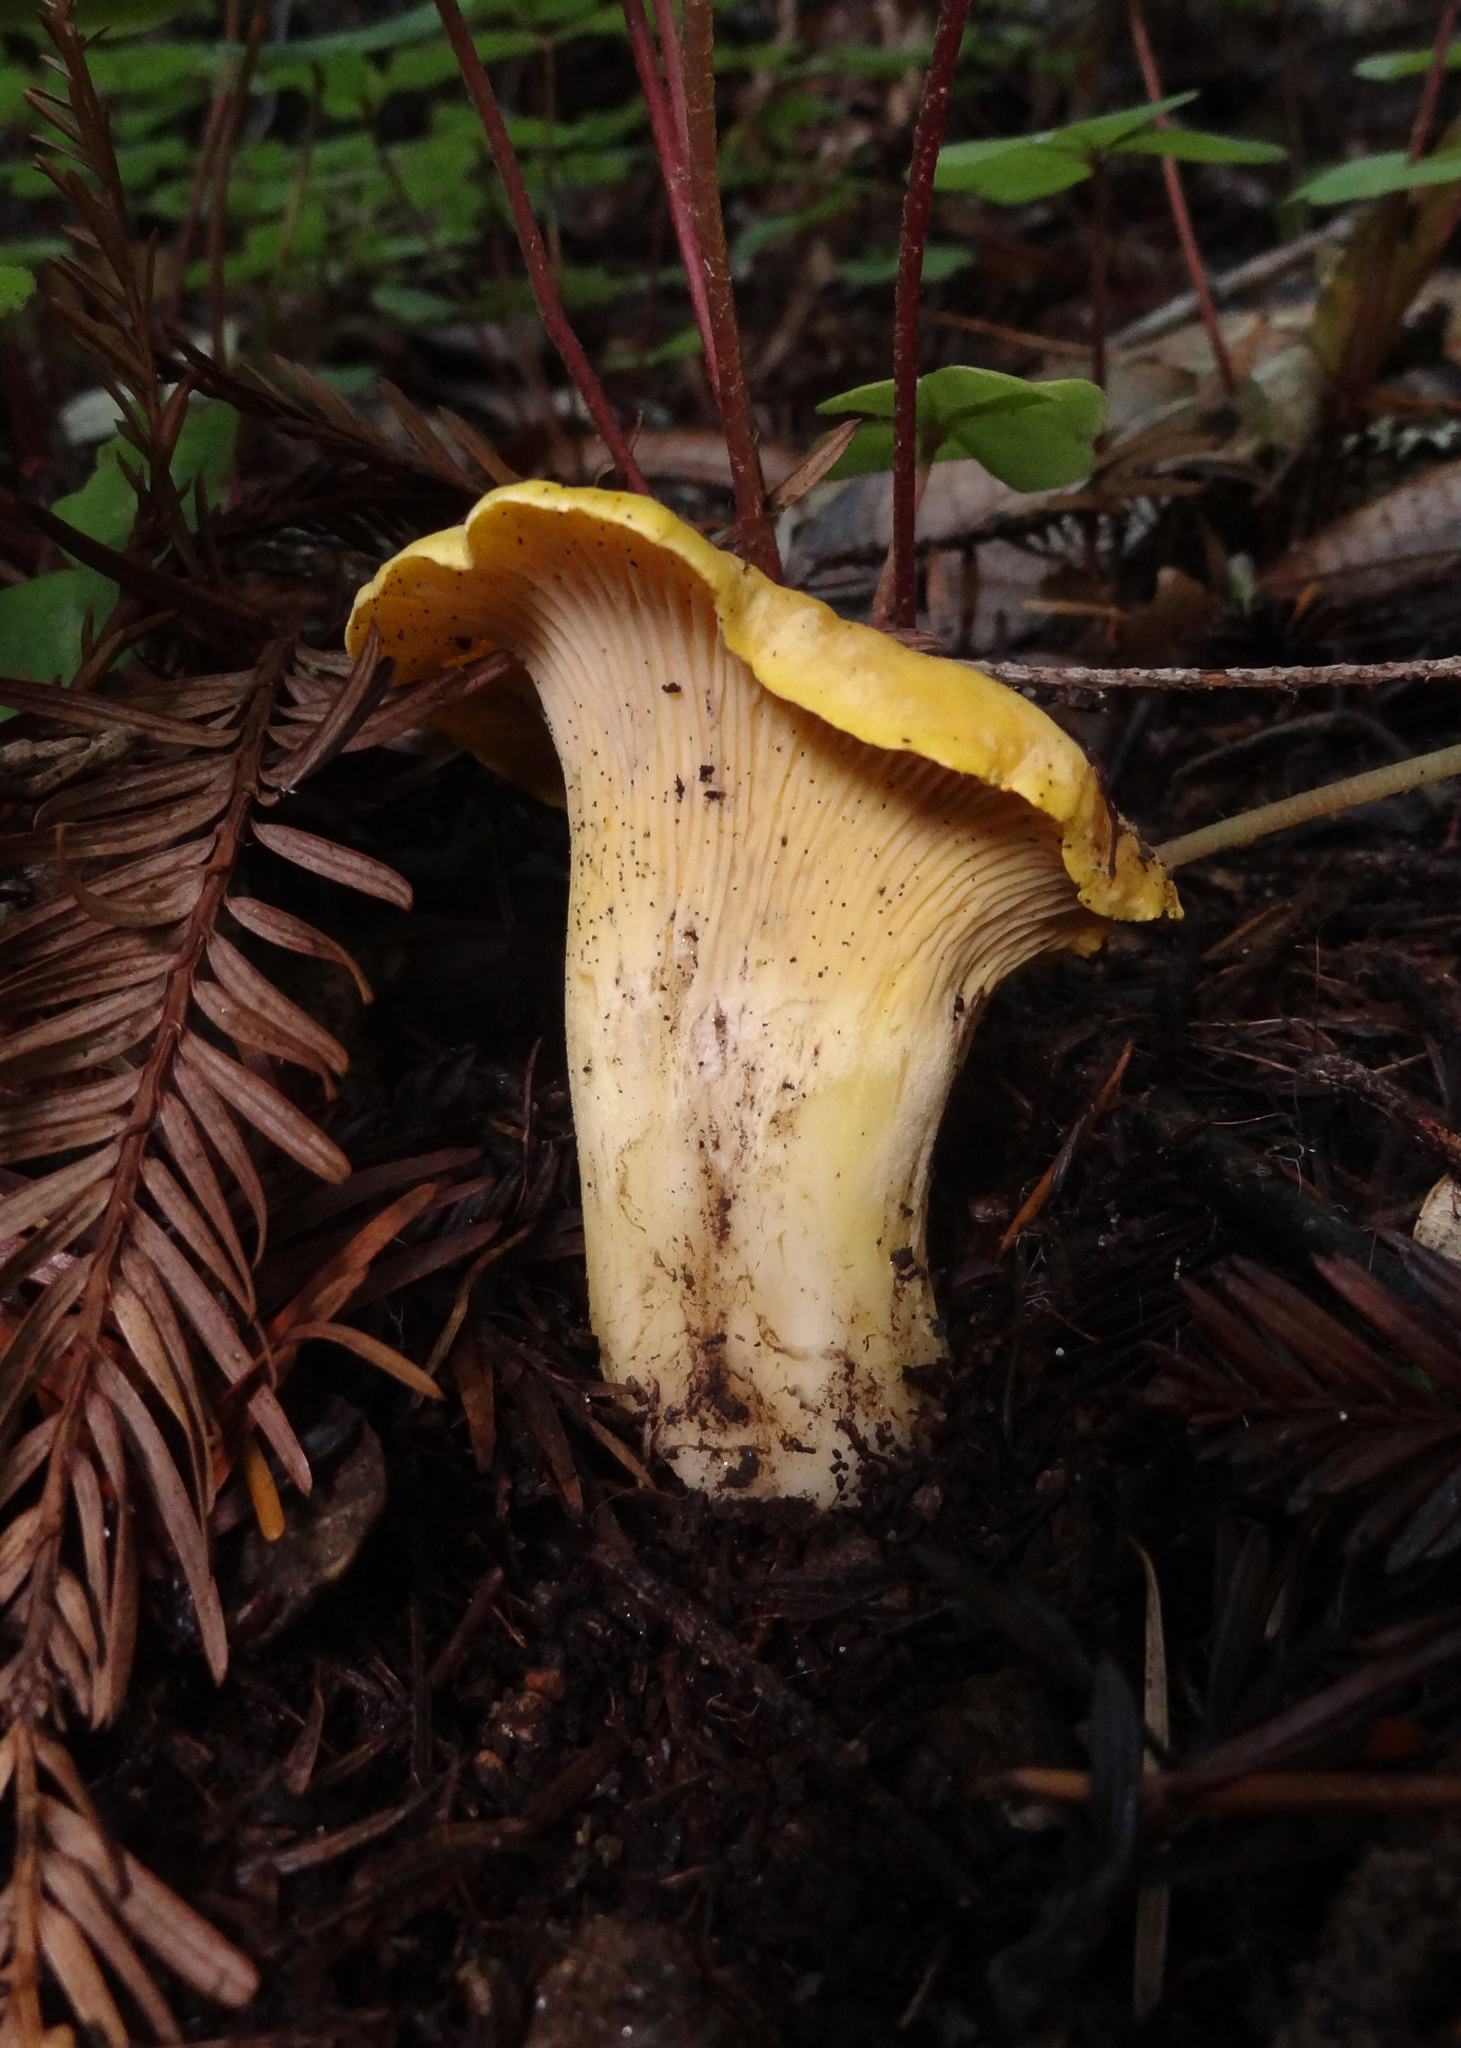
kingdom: Fungi
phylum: Basidiomycota
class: Agaricomycetes
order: Cantharellales
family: Hydnaceae
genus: Cantharellus
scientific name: Cantharellus californicus
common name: California golden chanterelle
